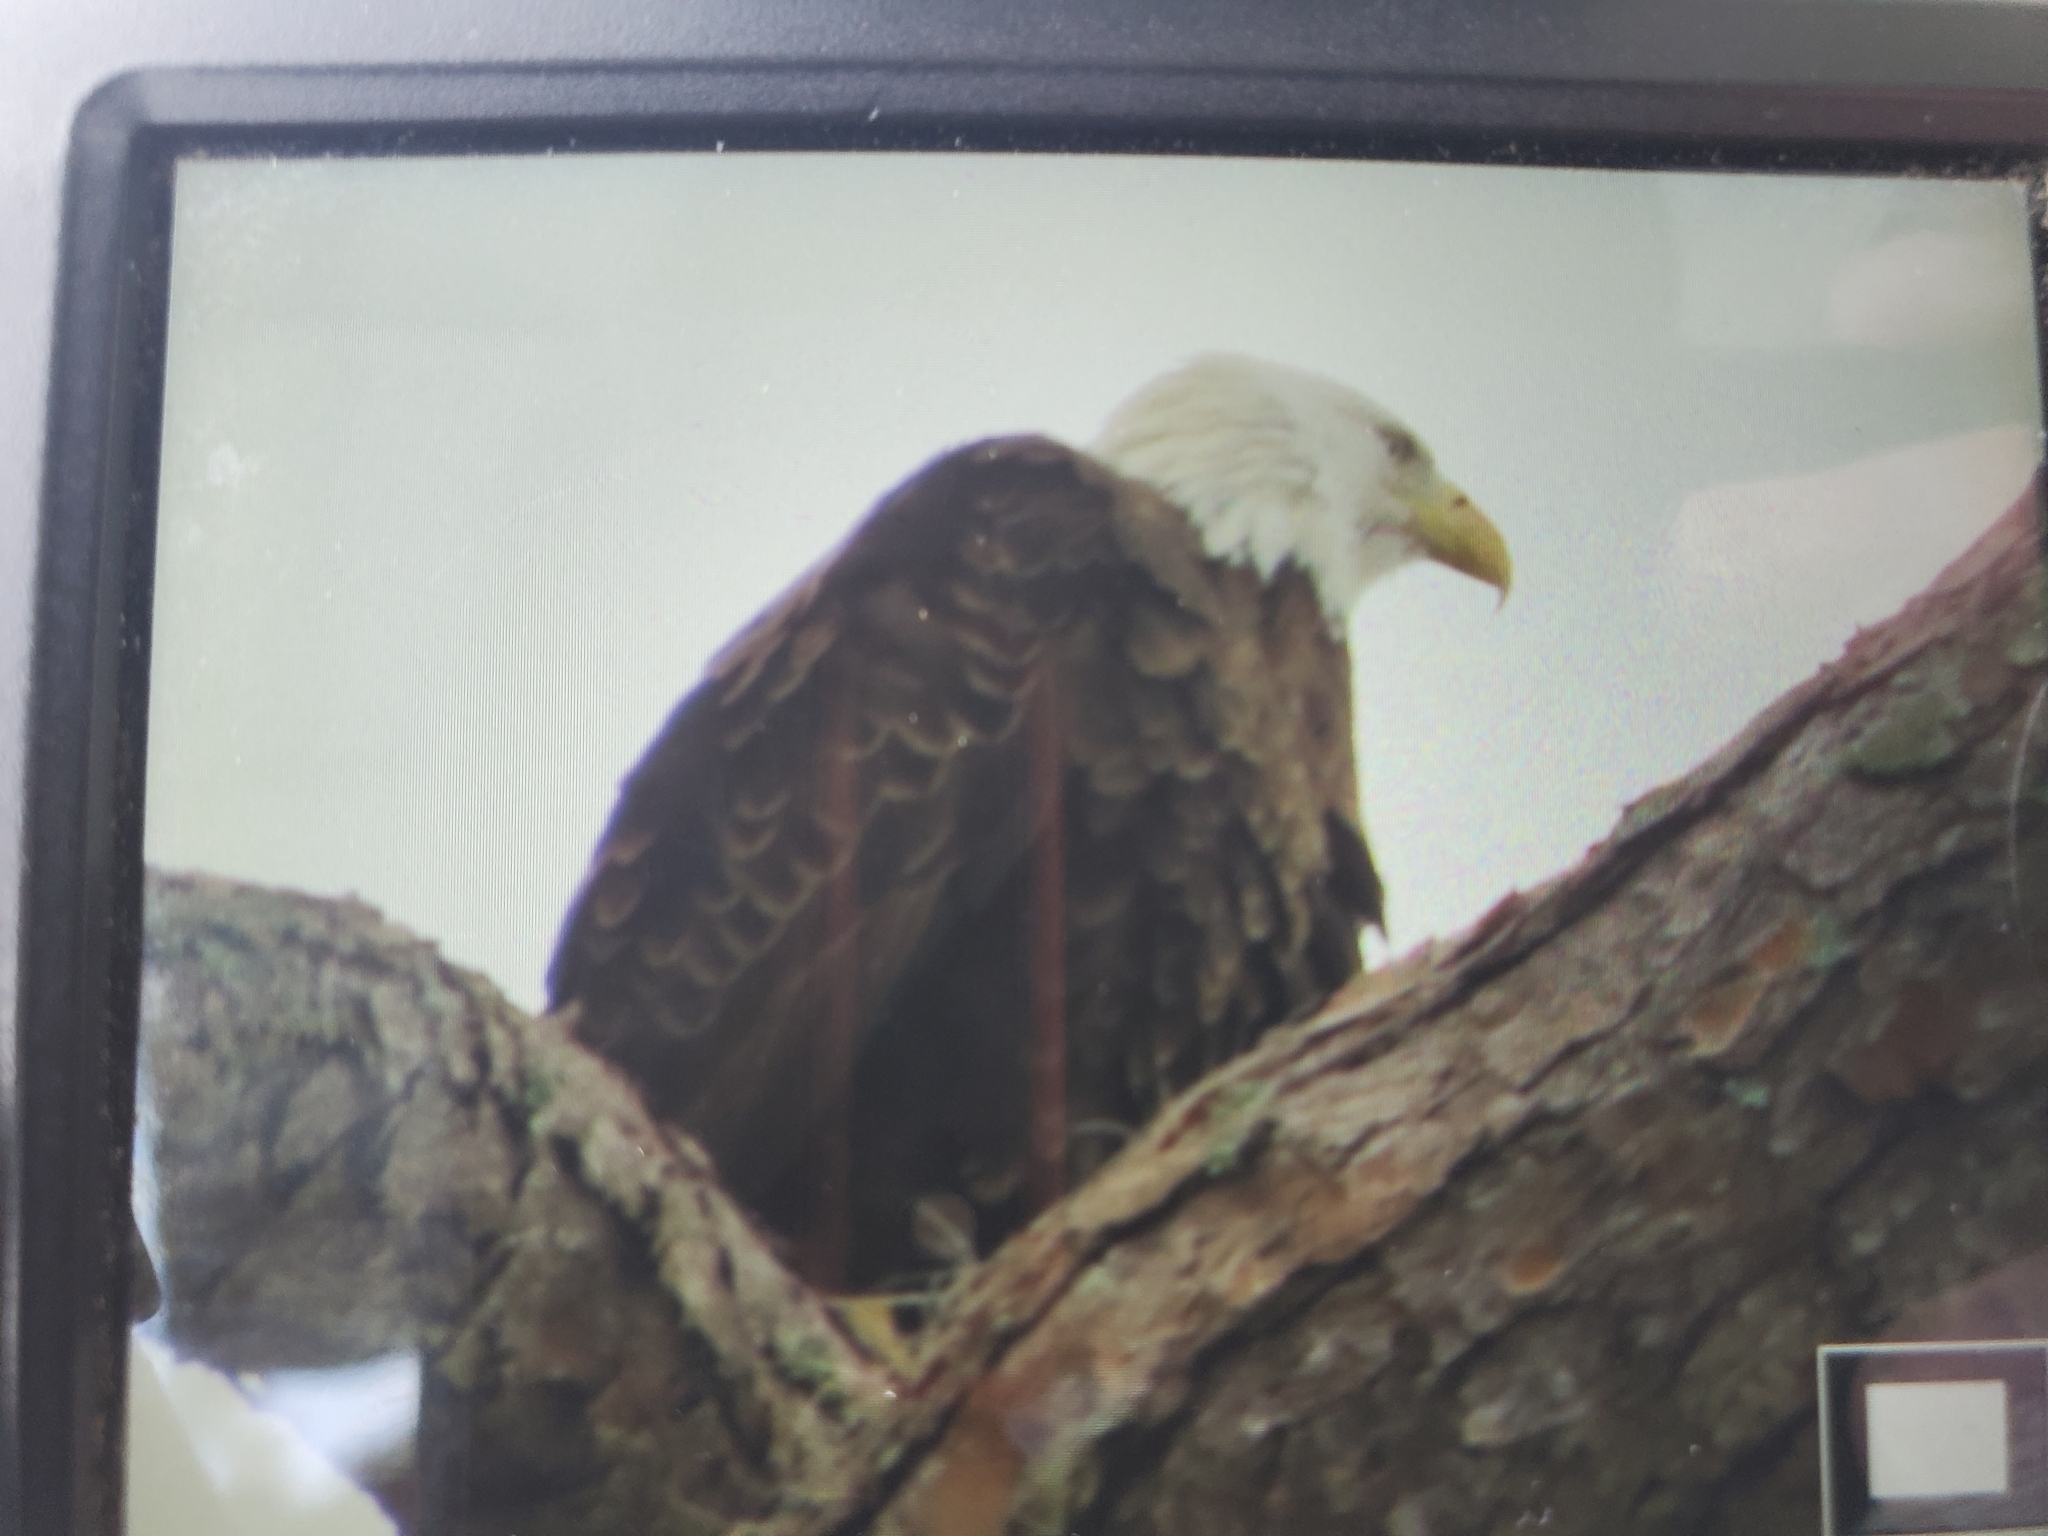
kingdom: Animalia
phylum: Chordata
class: Aves
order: Accipitriformes
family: Accipitridae
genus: Haliaeetus
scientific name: Haliaeetus leucocephalus
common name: Bald eagle
